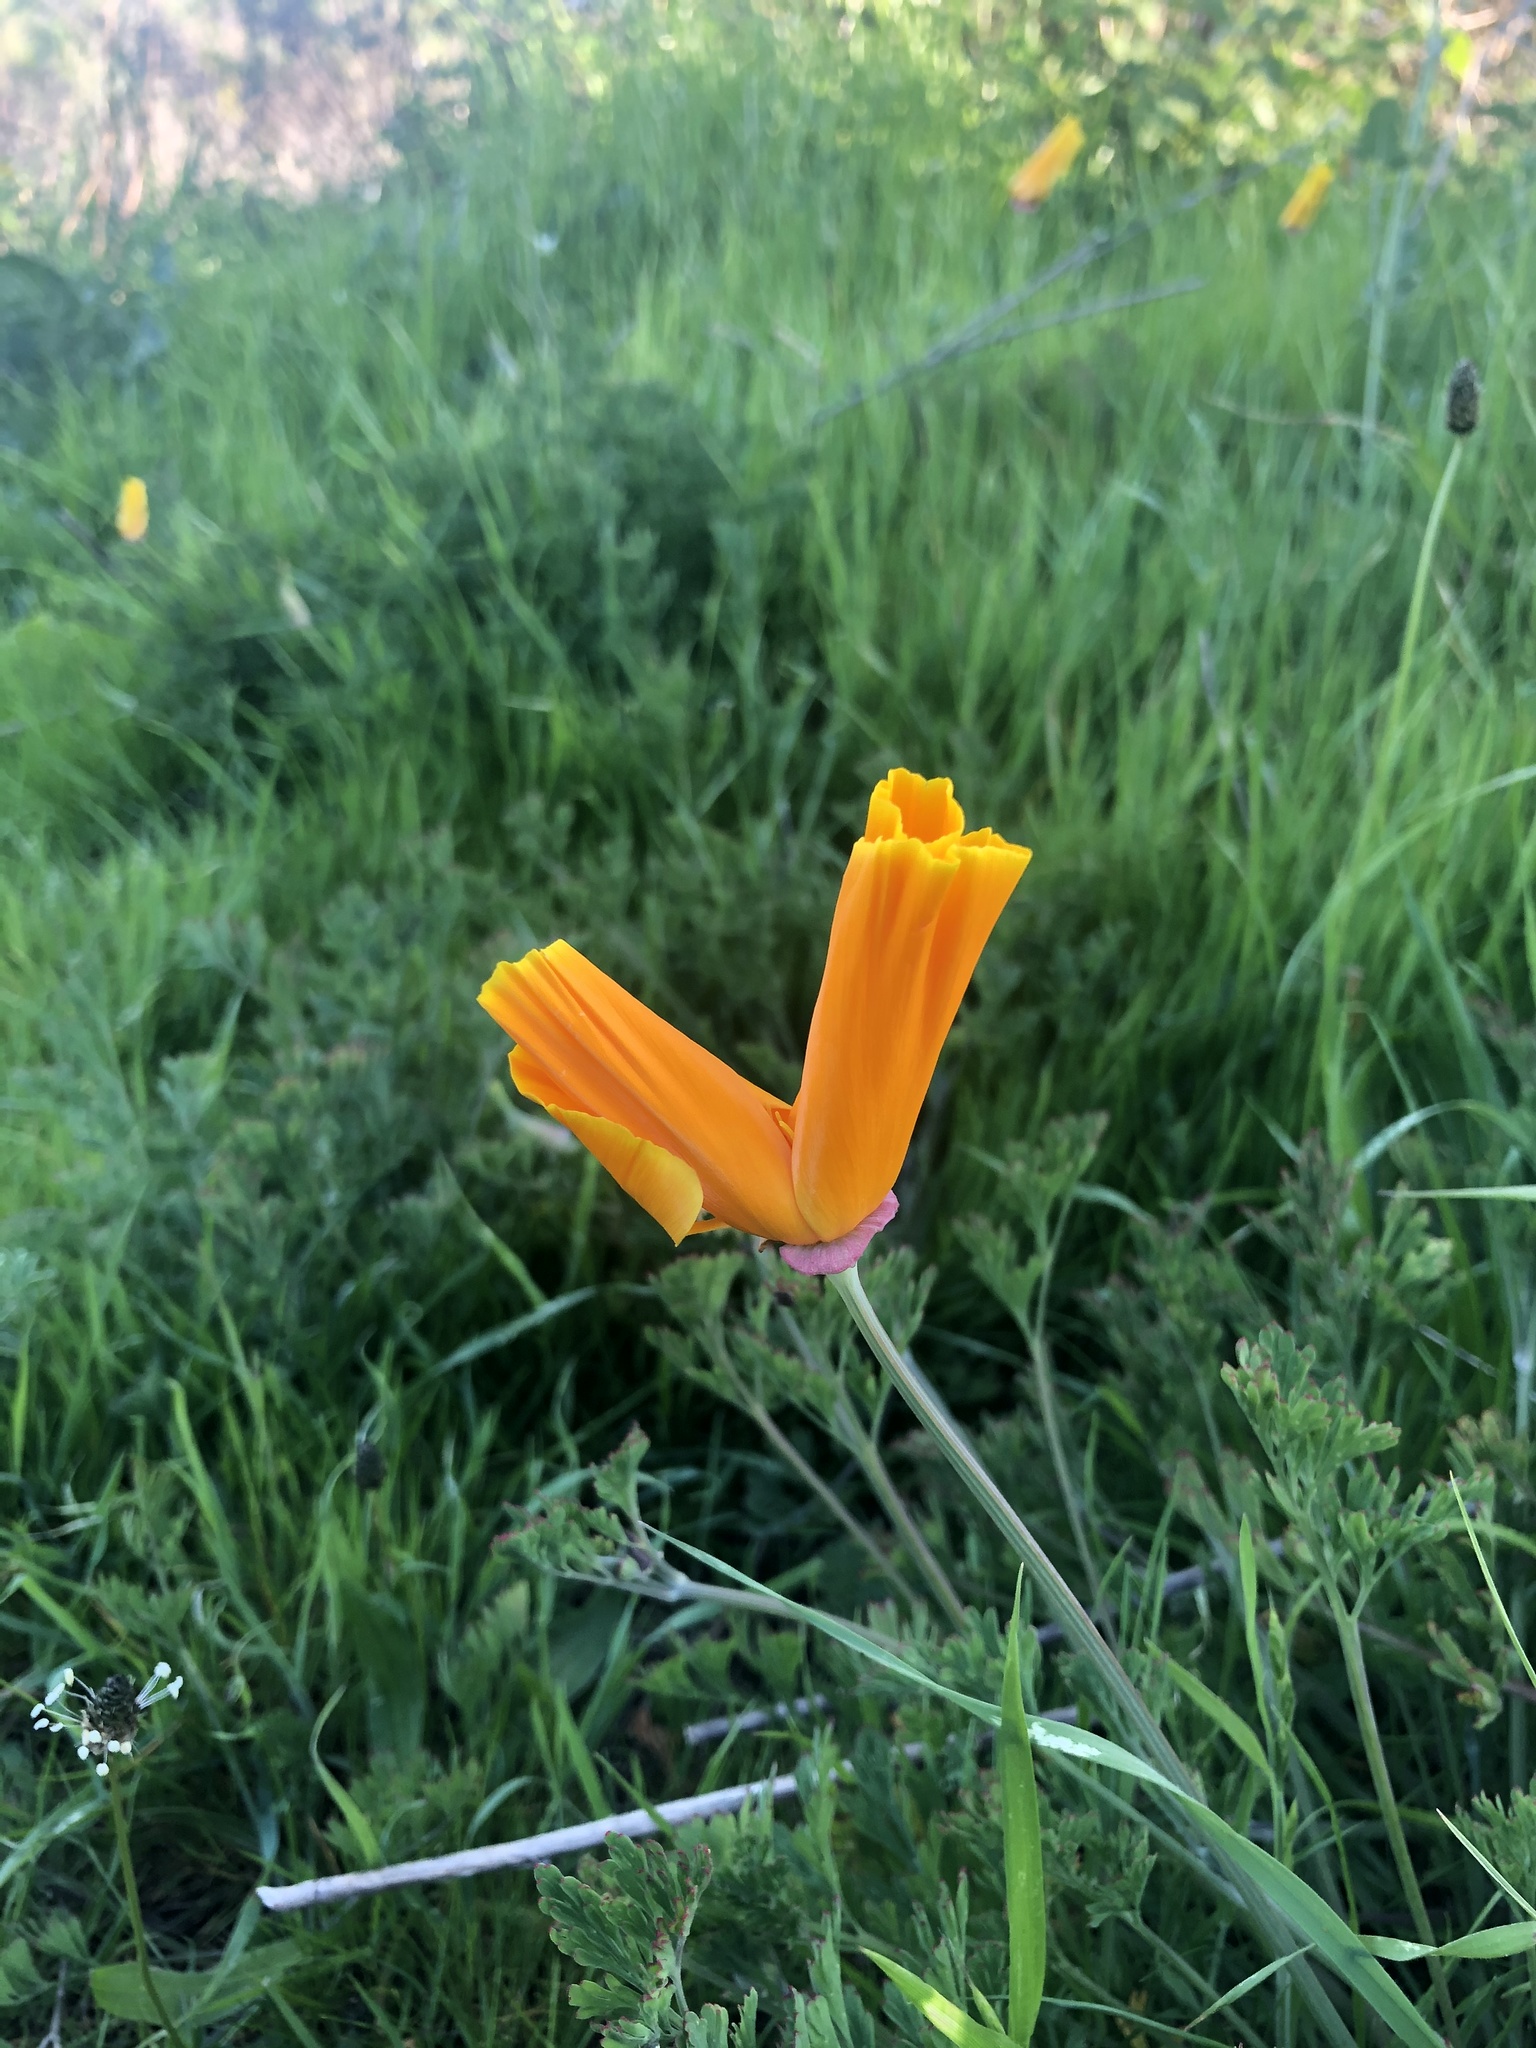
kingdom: Plantae
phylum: Tracheophyta
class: Magnoliopsida
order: Ranunculales
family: Papaveraceae
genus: Eschscholzia
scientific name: Eschscholzia californica
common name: California poppy
